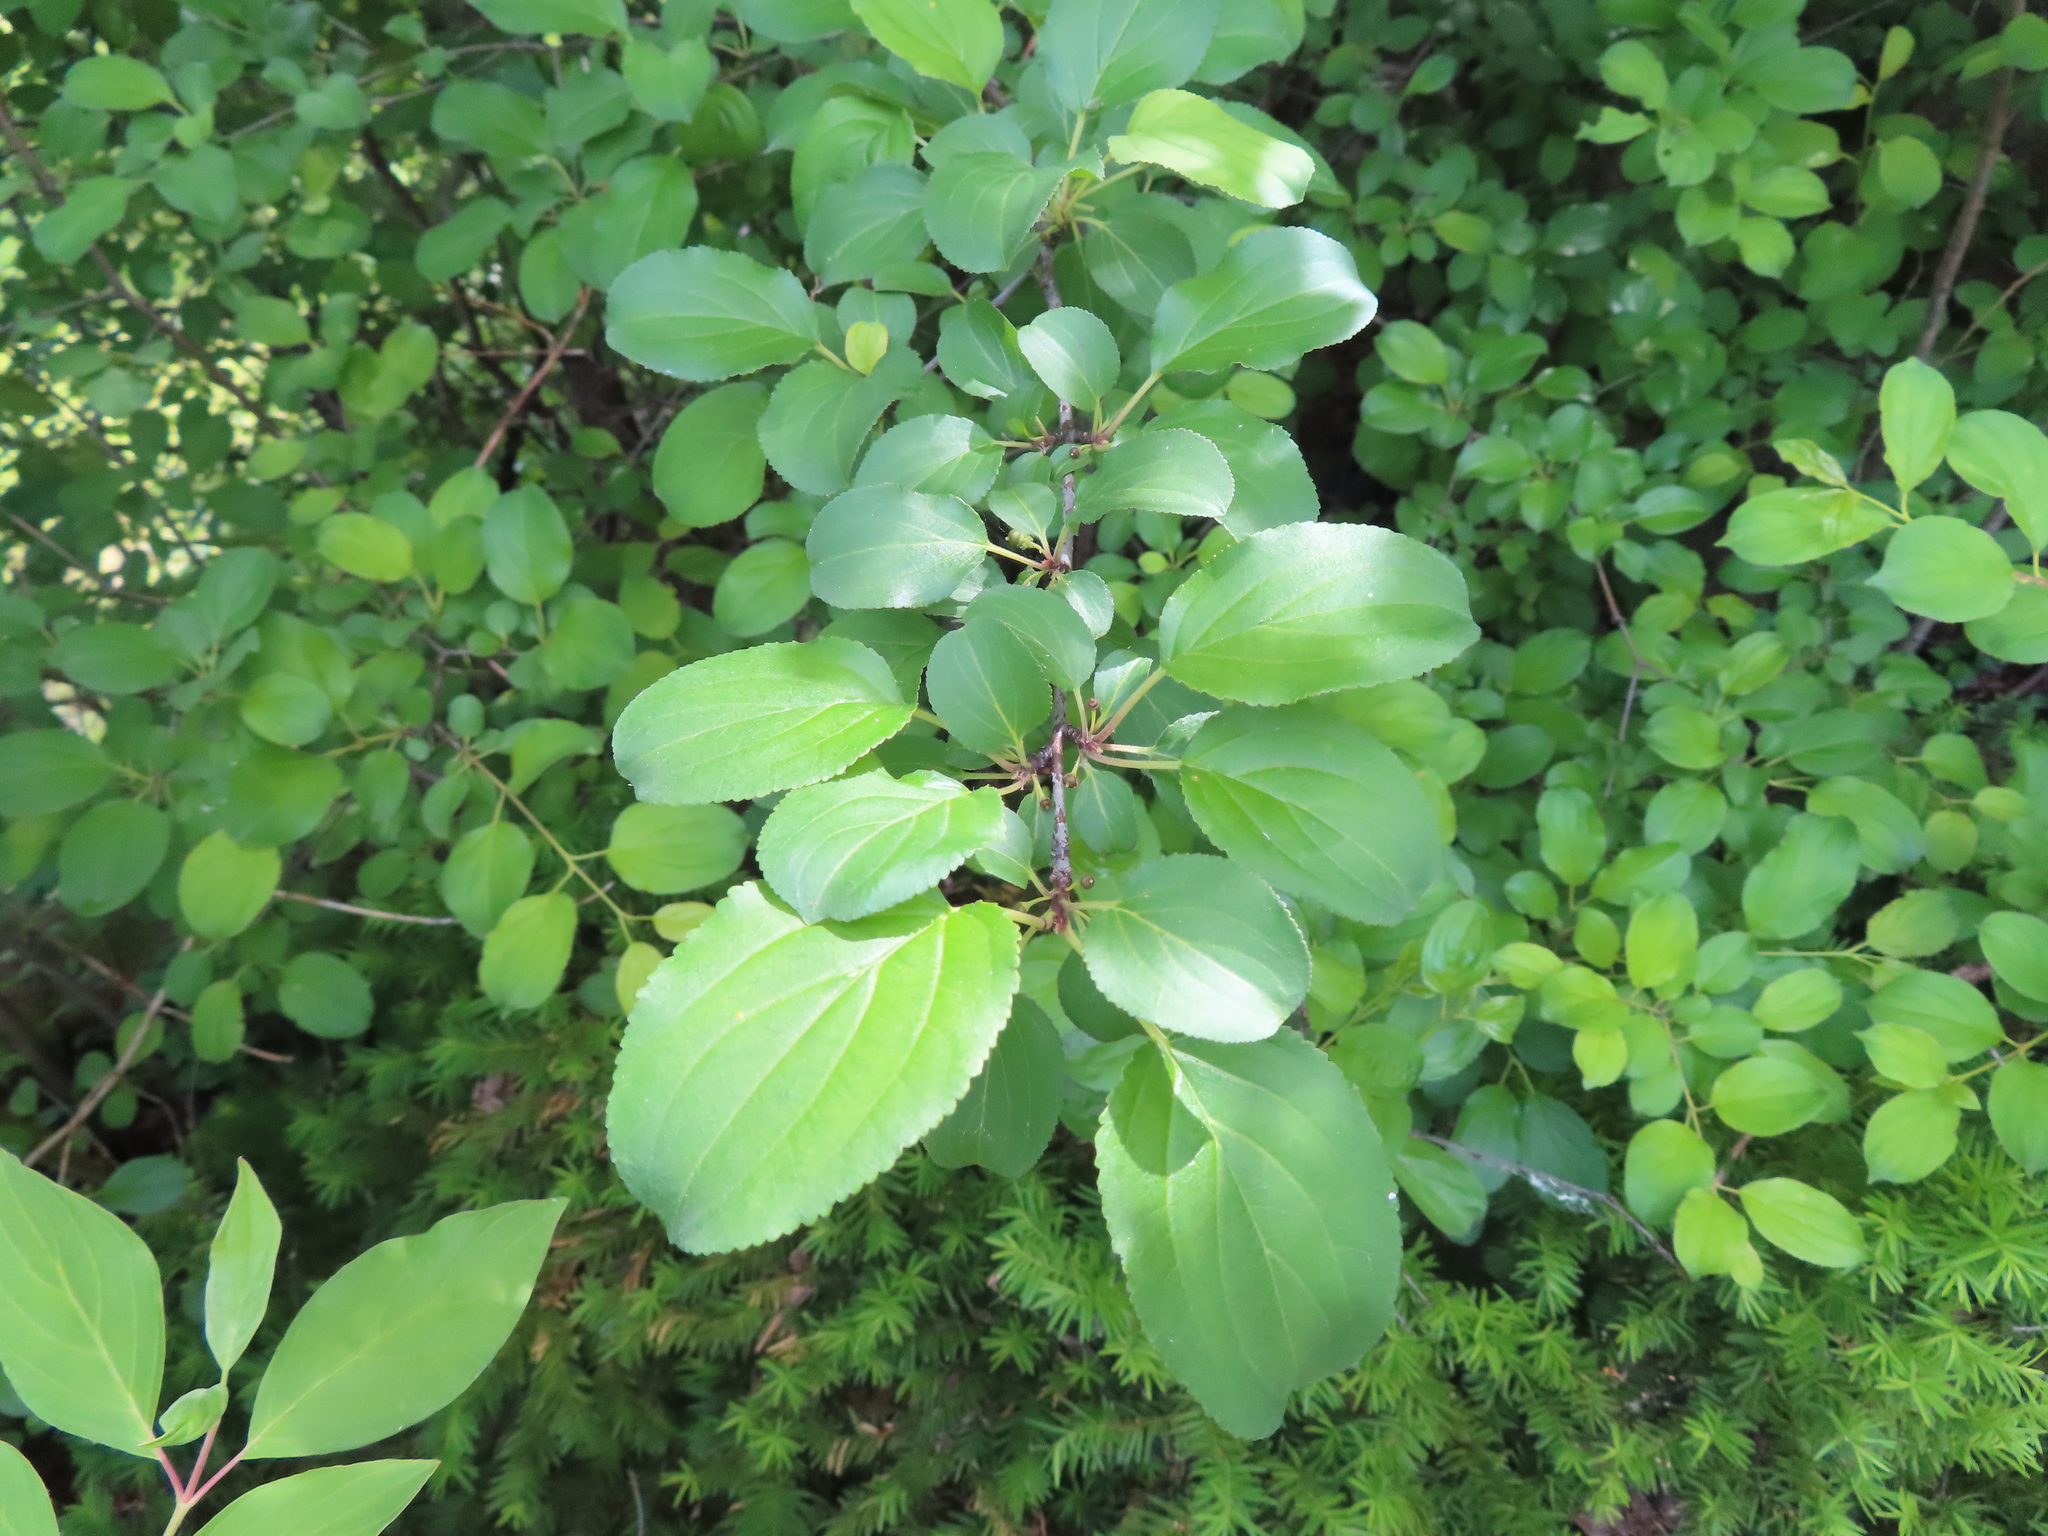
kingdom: Plantae
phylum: Tracheophyta
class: Magnoliopsida
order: Rosales
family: Rhamnaceae
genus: Rhamnus
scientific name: Rhamnus cathartica
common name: Common buckthorn
